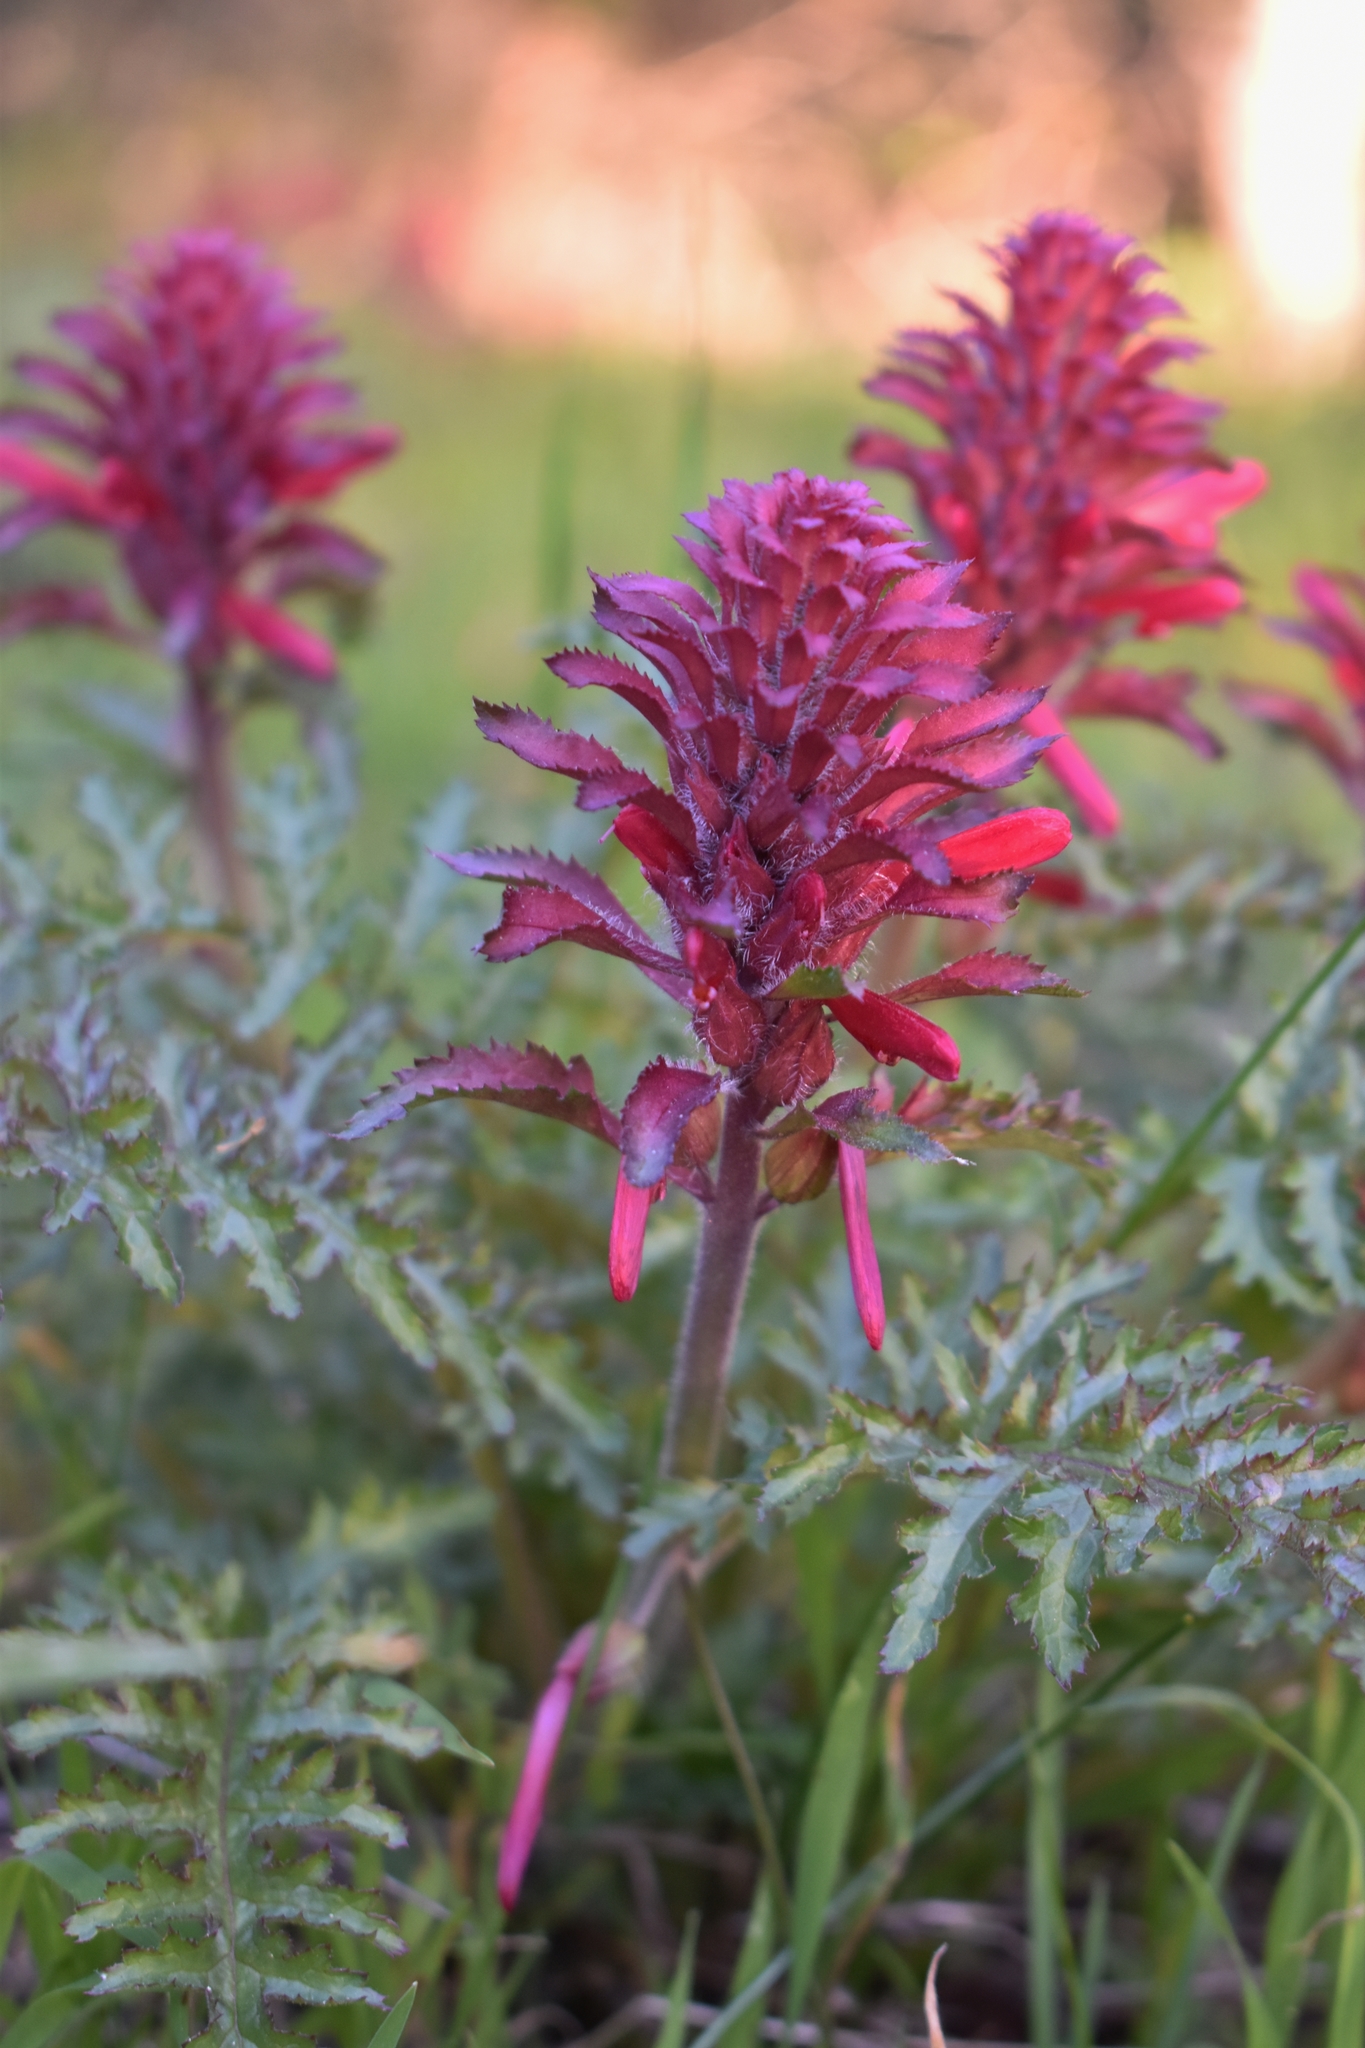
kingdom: Plantae
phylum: Tracheophyta
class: Magnoliopsida
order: Lamiales
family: Orobanchaceae
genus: Pedicularis
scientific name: Pedicularis densiflora
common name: Indian warrior
